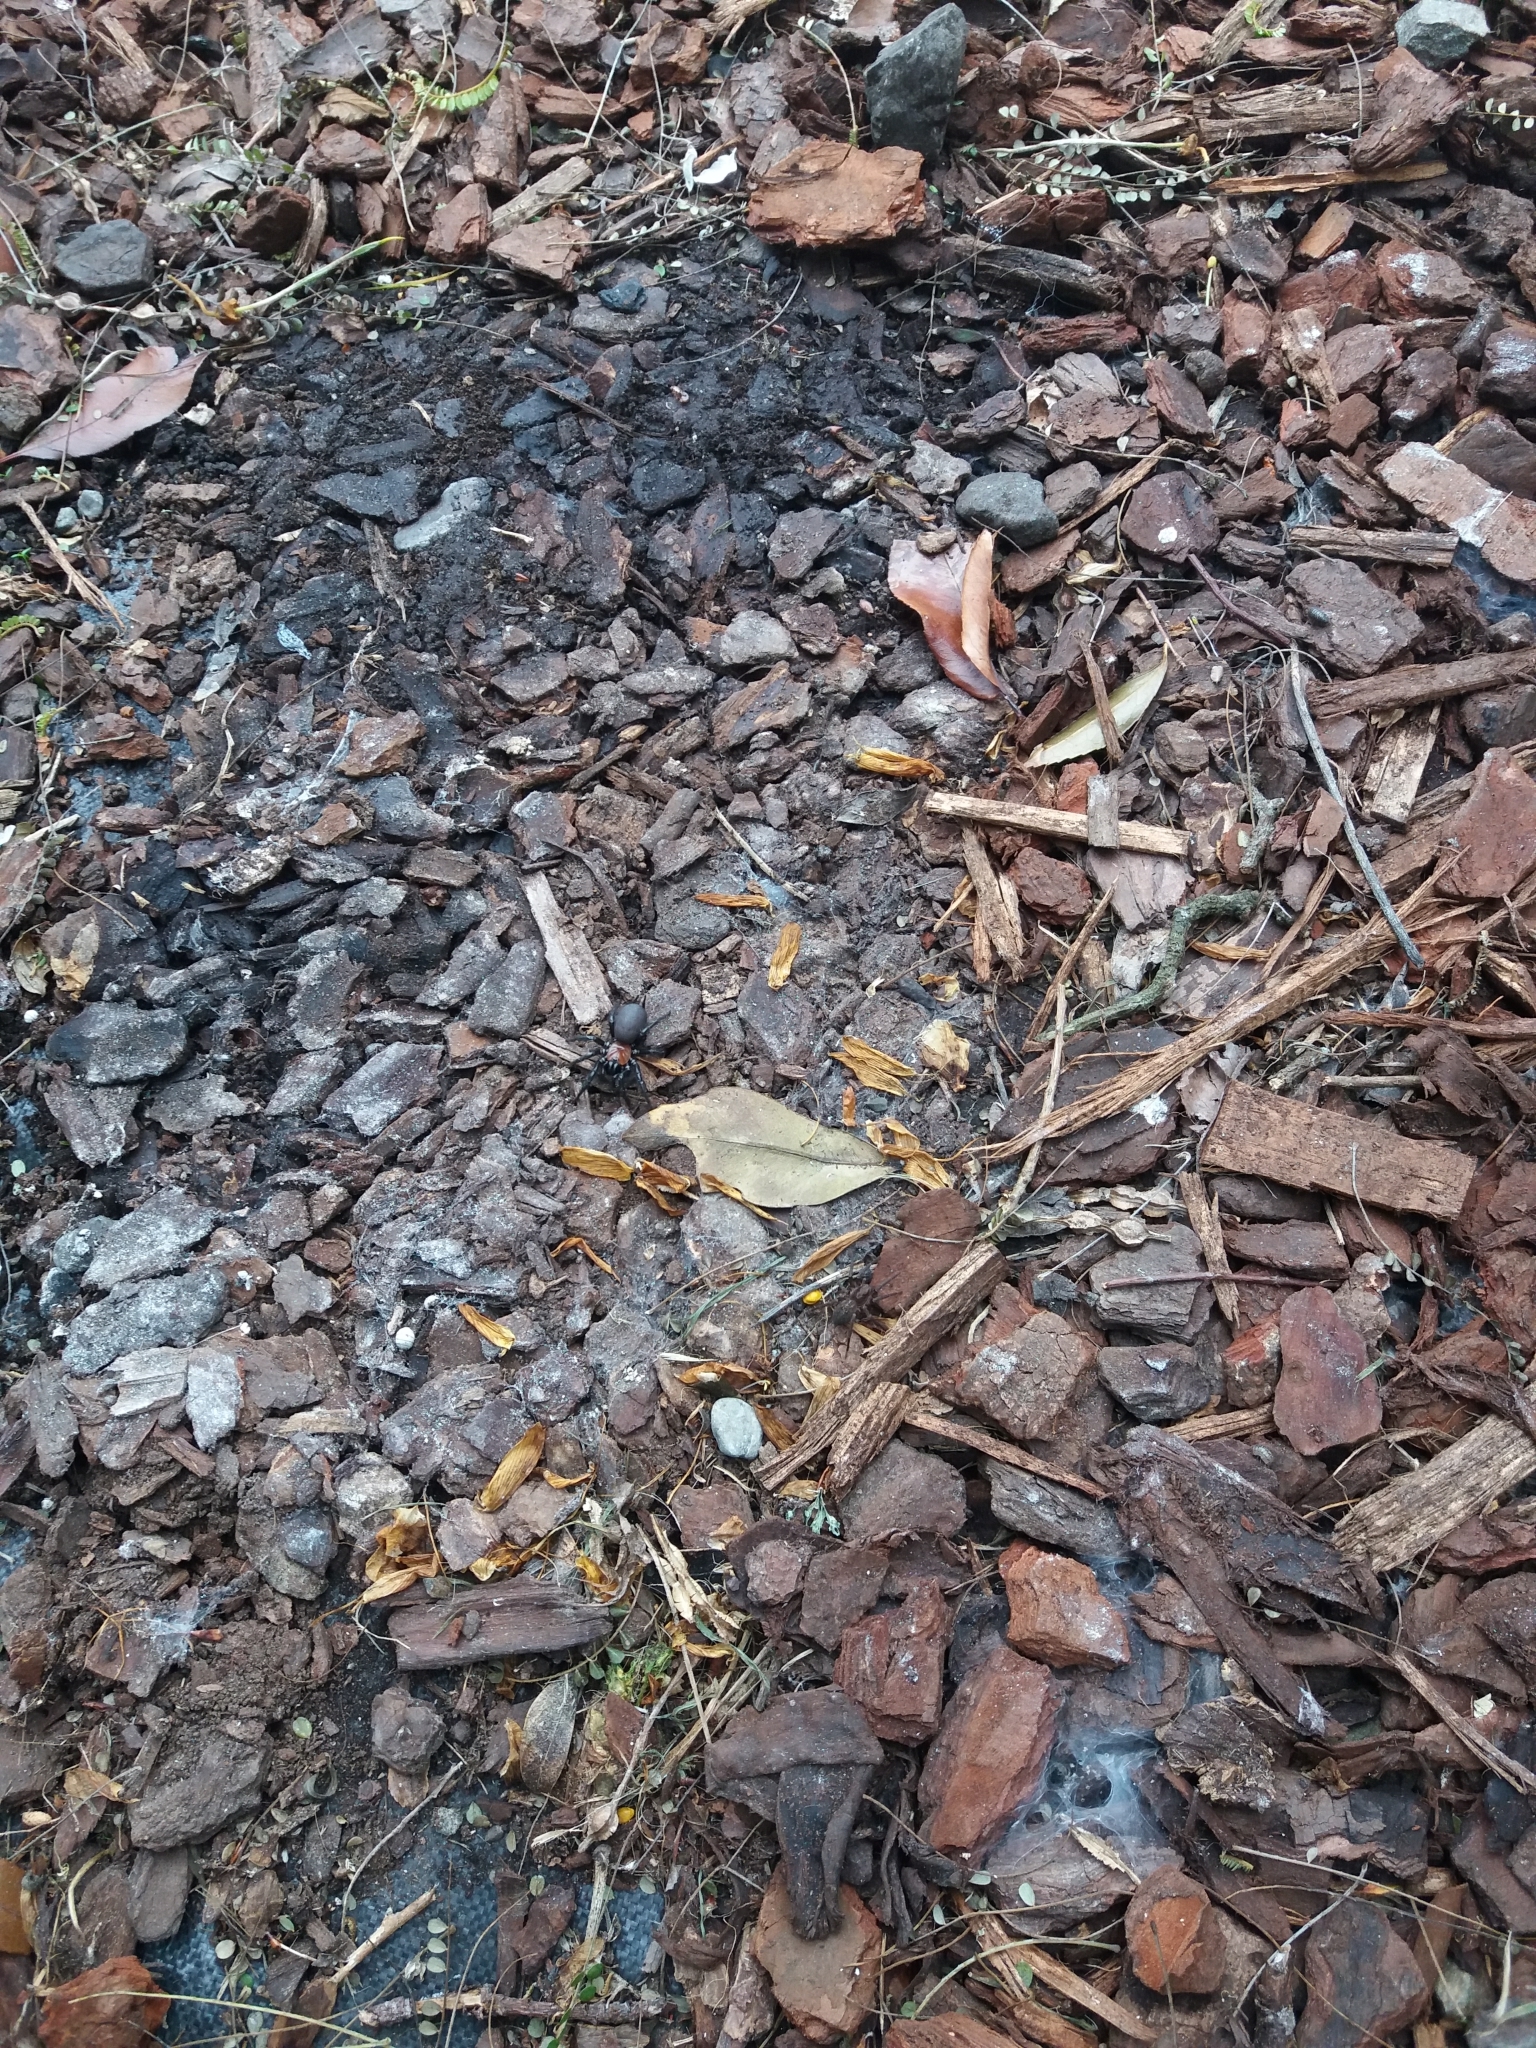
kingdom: Animalia
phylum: Arthropoda
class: Arachnida
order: Araneae
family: Porrhothelidae
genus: Porrhothele
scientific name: Porrhothele antipodiana
